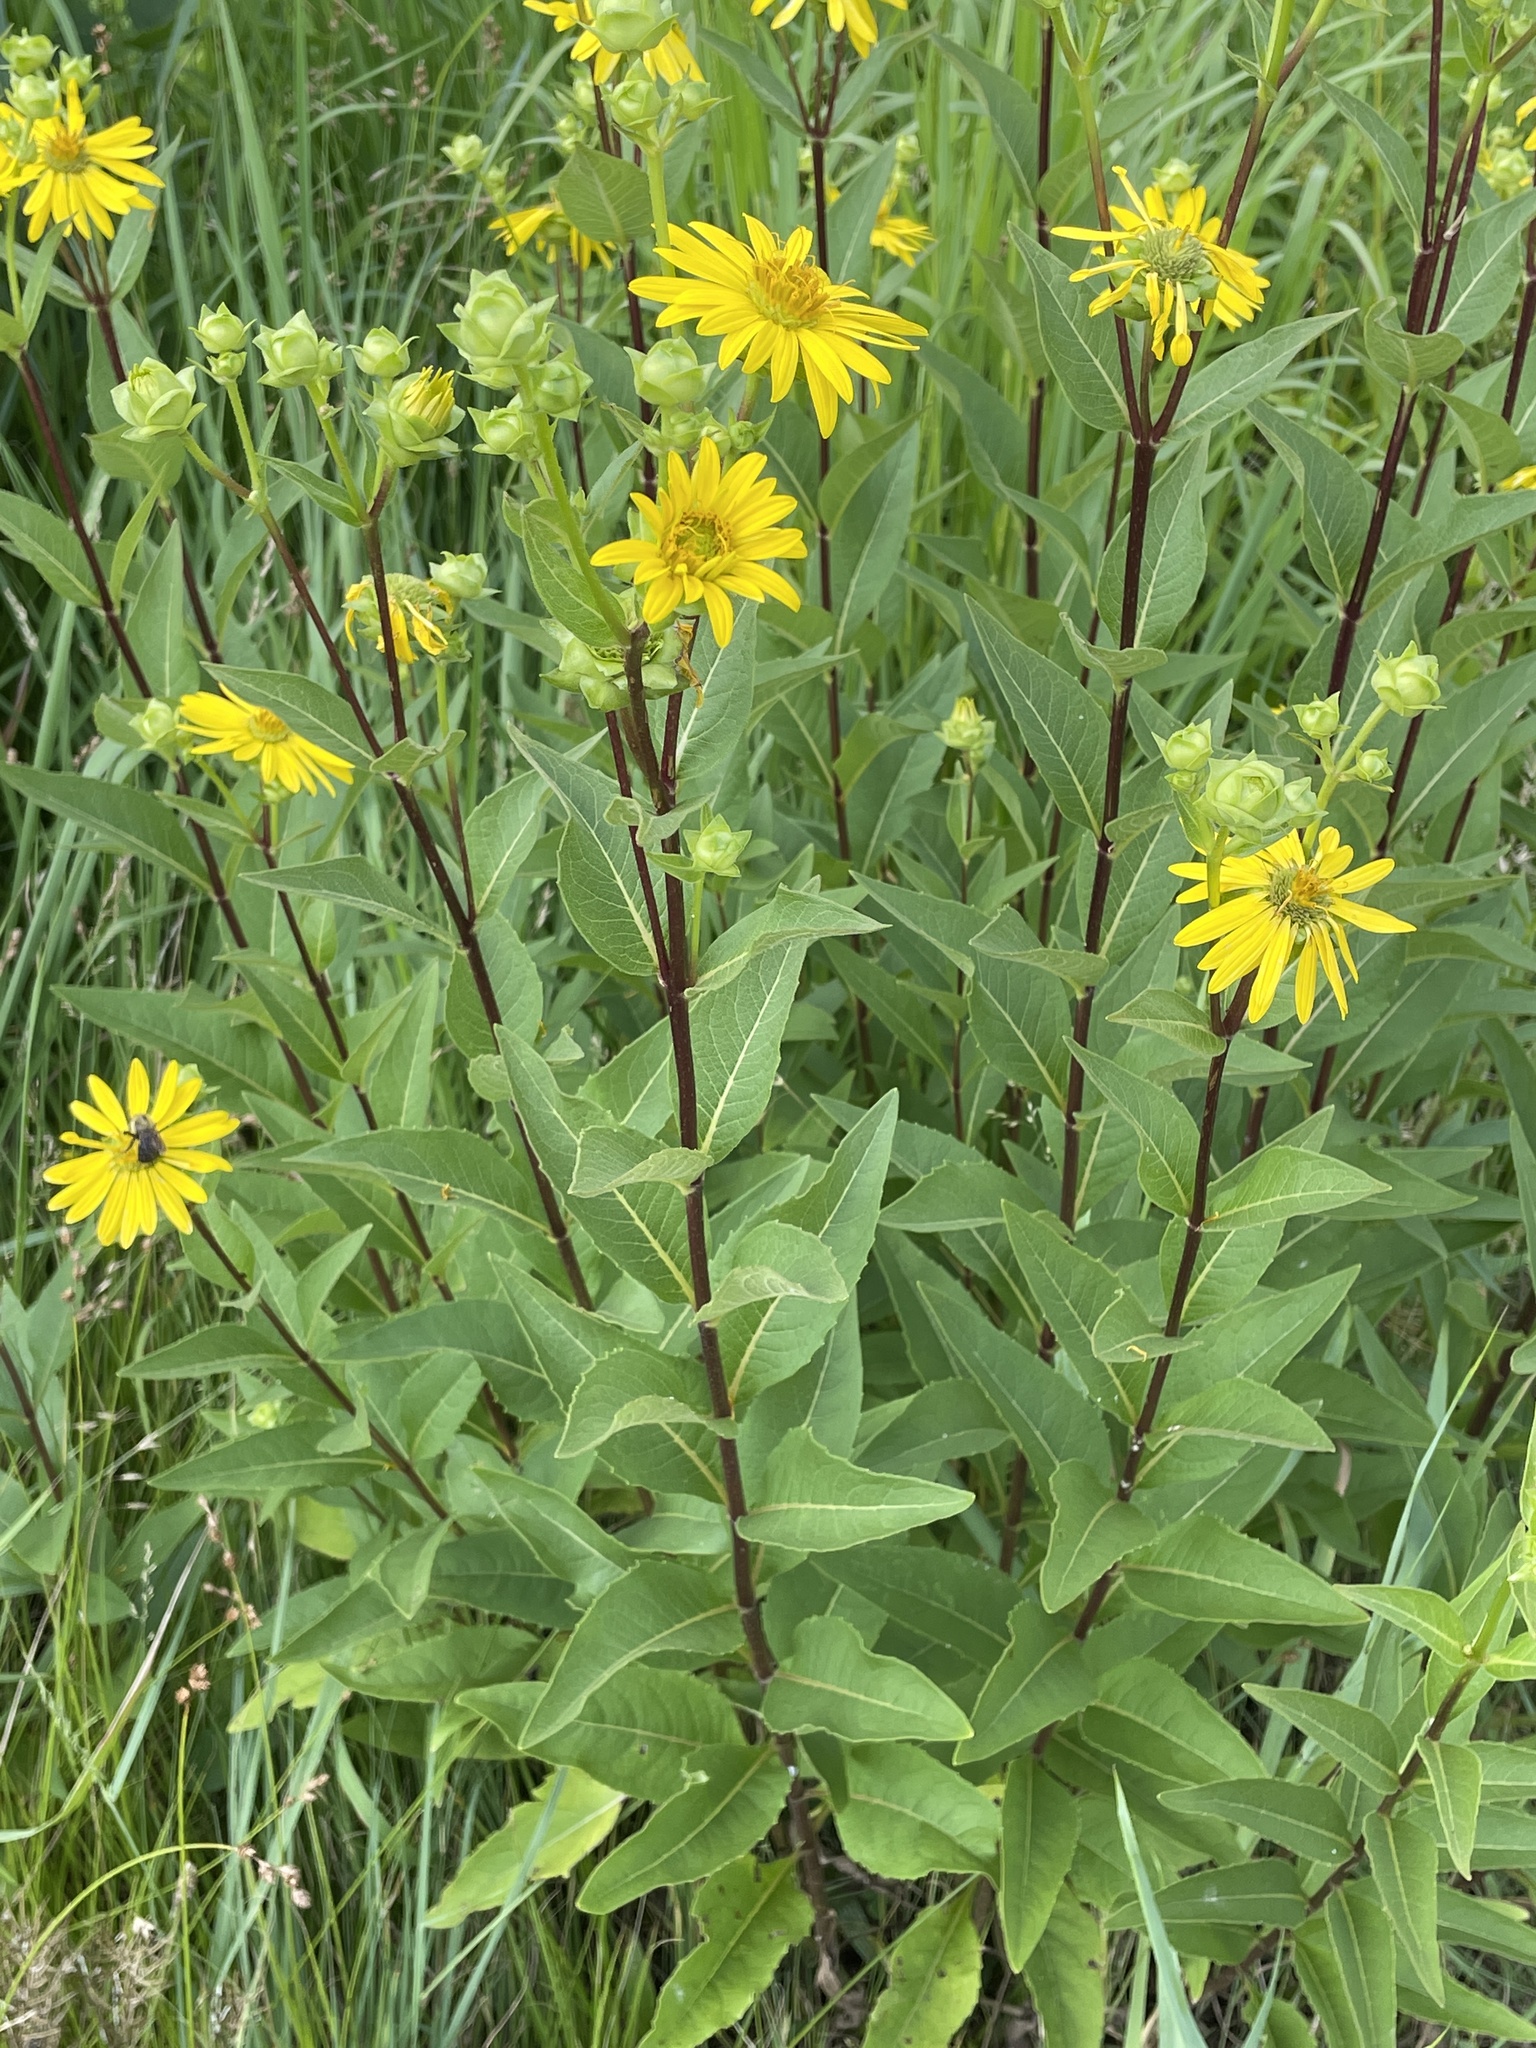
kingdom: Plantae
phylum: Tracheophyta
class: Magnoliopsida
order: Asterales
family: Asteraceae
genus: Silphium
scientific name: Silphium integrifolium
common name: Whole-leaf rosinweed
